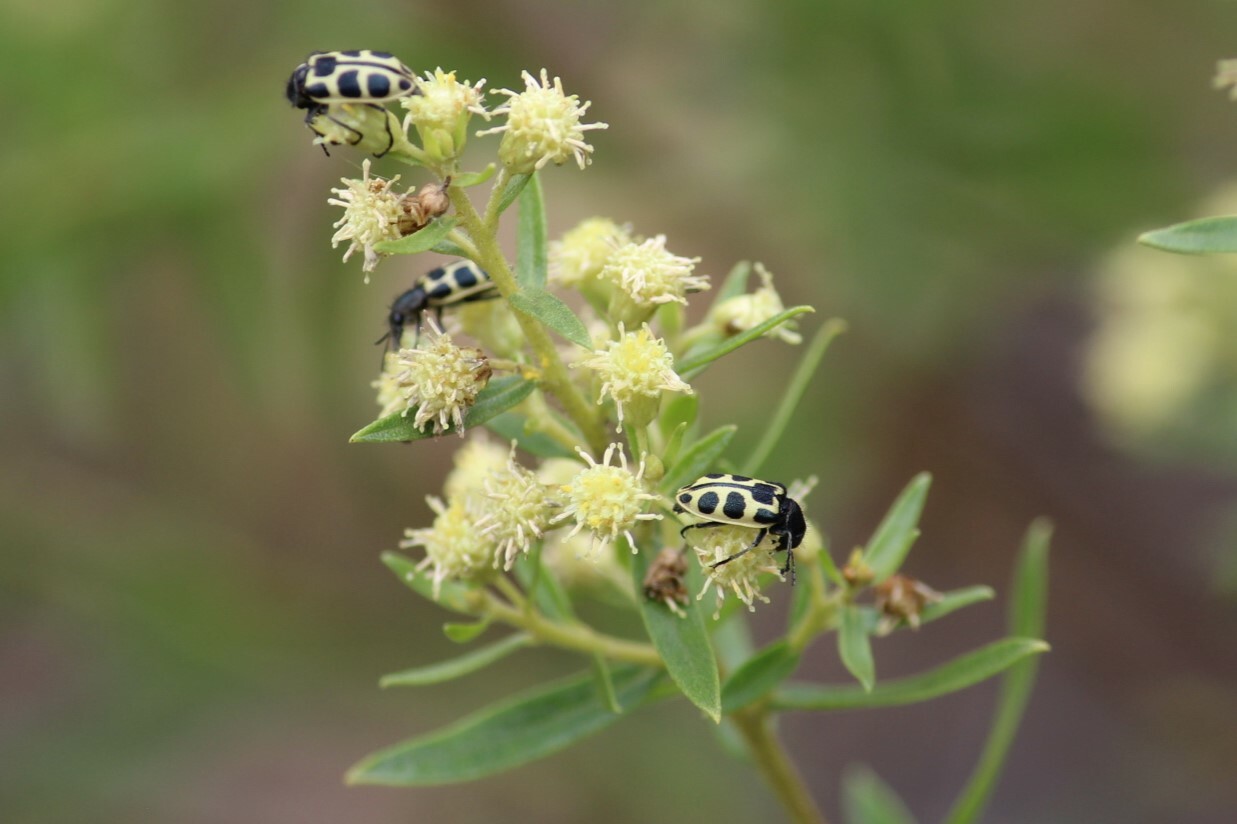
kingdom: Animalia
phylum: Arthropoda
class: Insecta
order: Coleoptera
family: Melyridae
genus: Astylus
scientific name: Astylus
